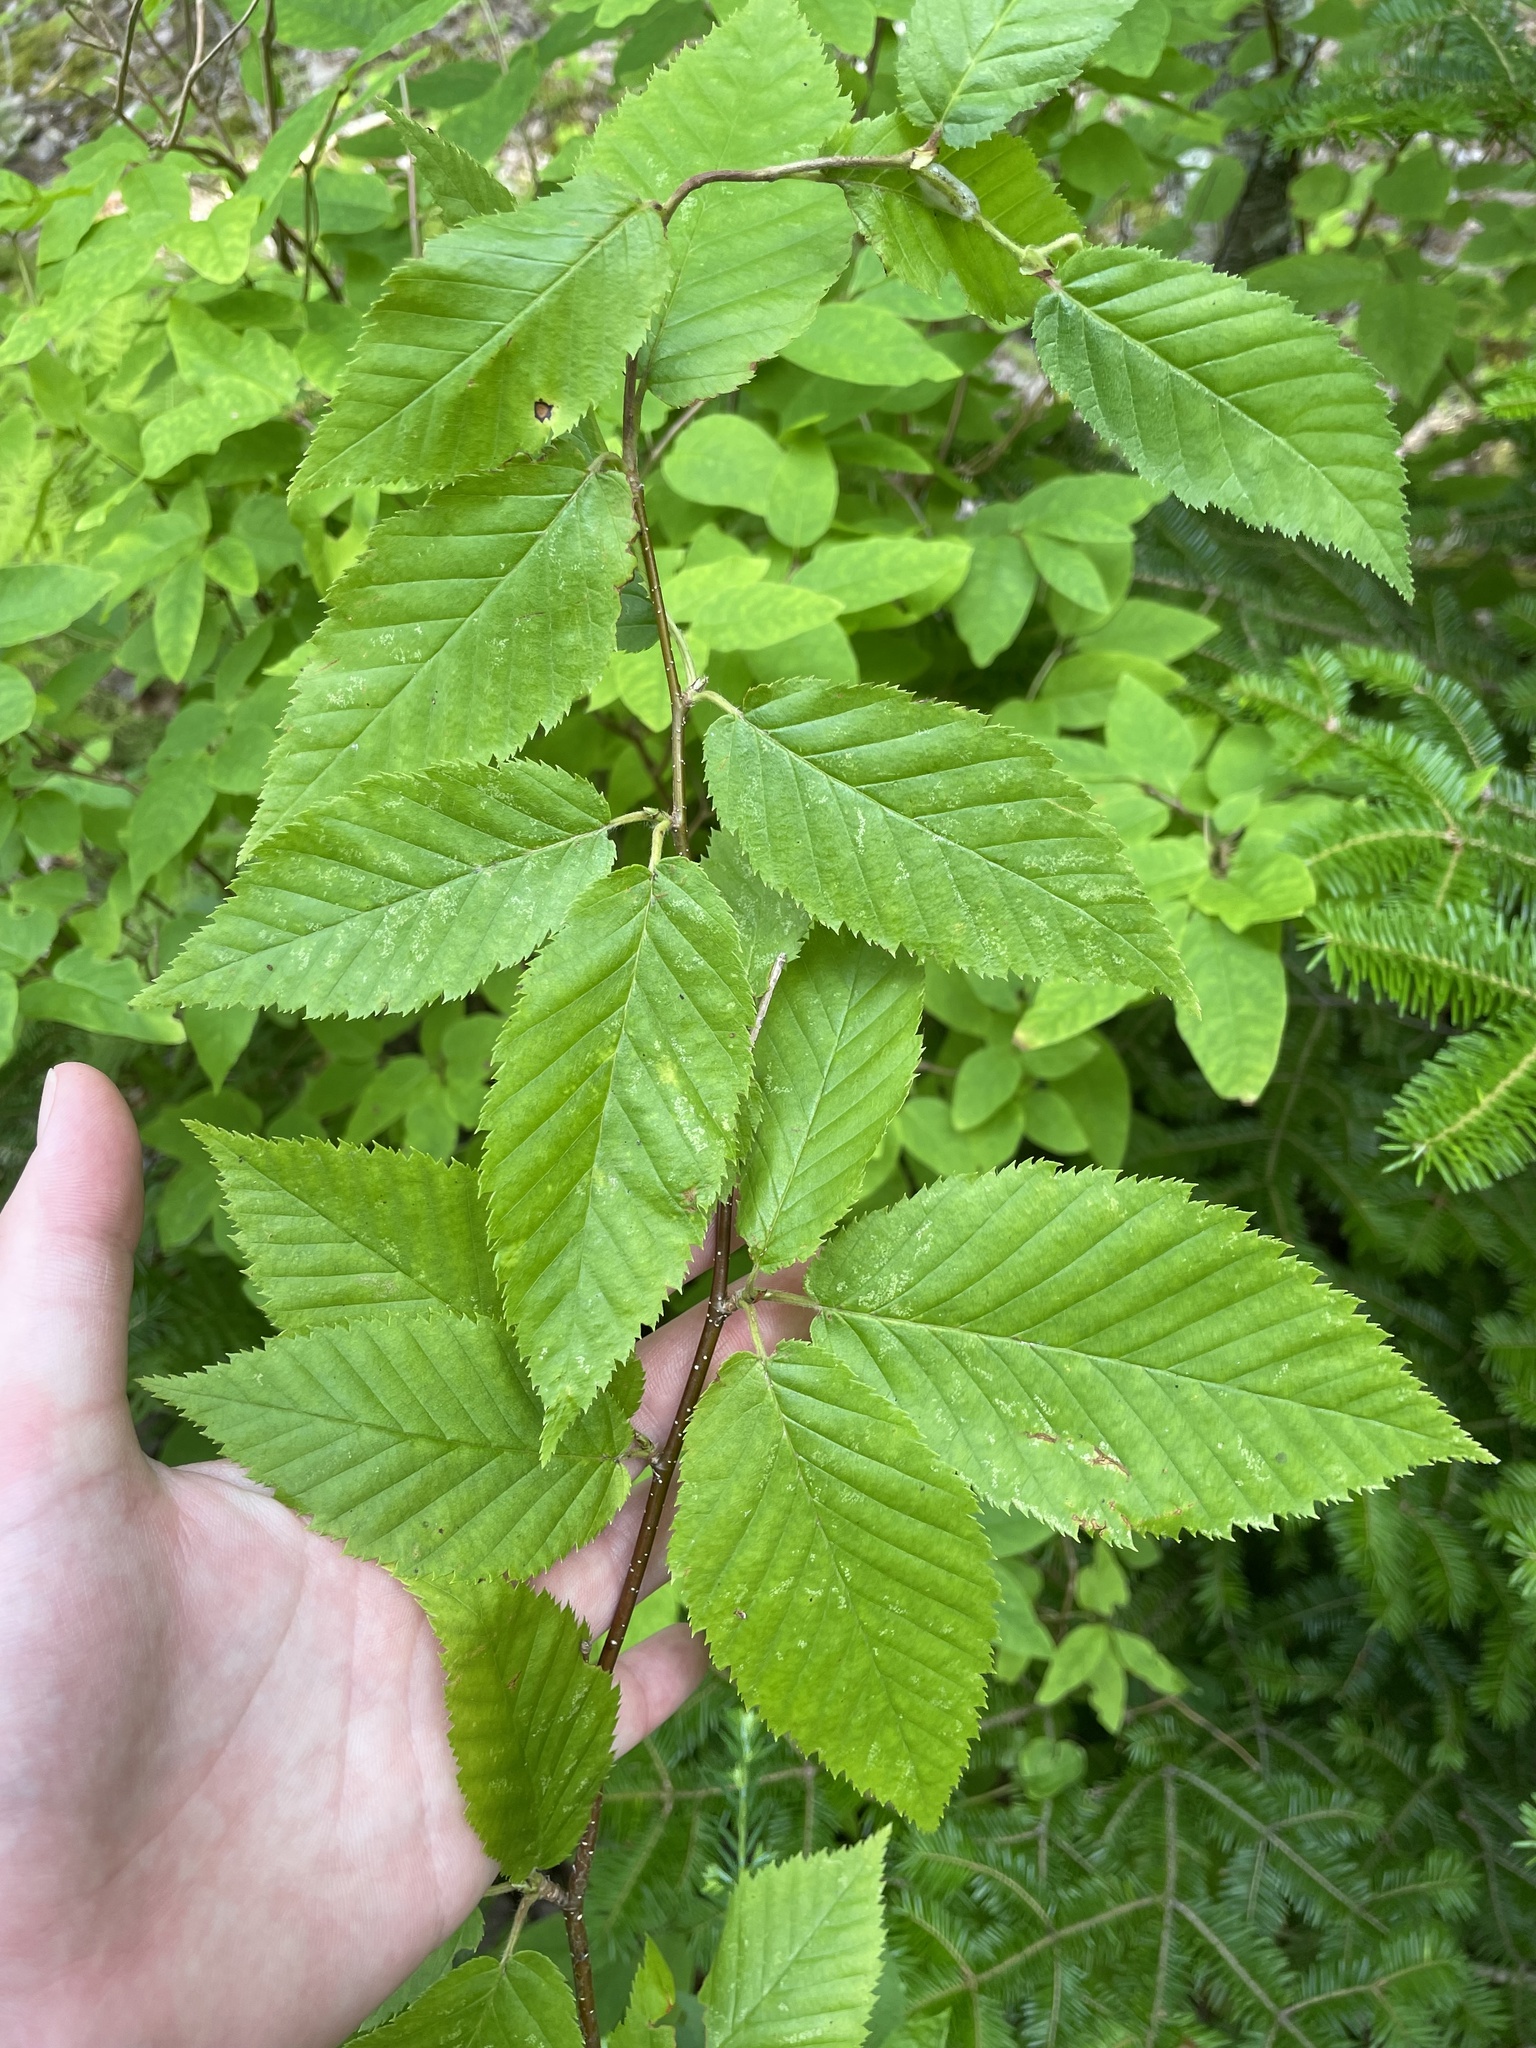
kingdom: Plantae
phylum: Tracheophyta
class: Magnoliopsida
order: Fagales
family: Betulaceae
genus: Betula
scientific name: Betula alleghaniensis
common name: Yellow birch
